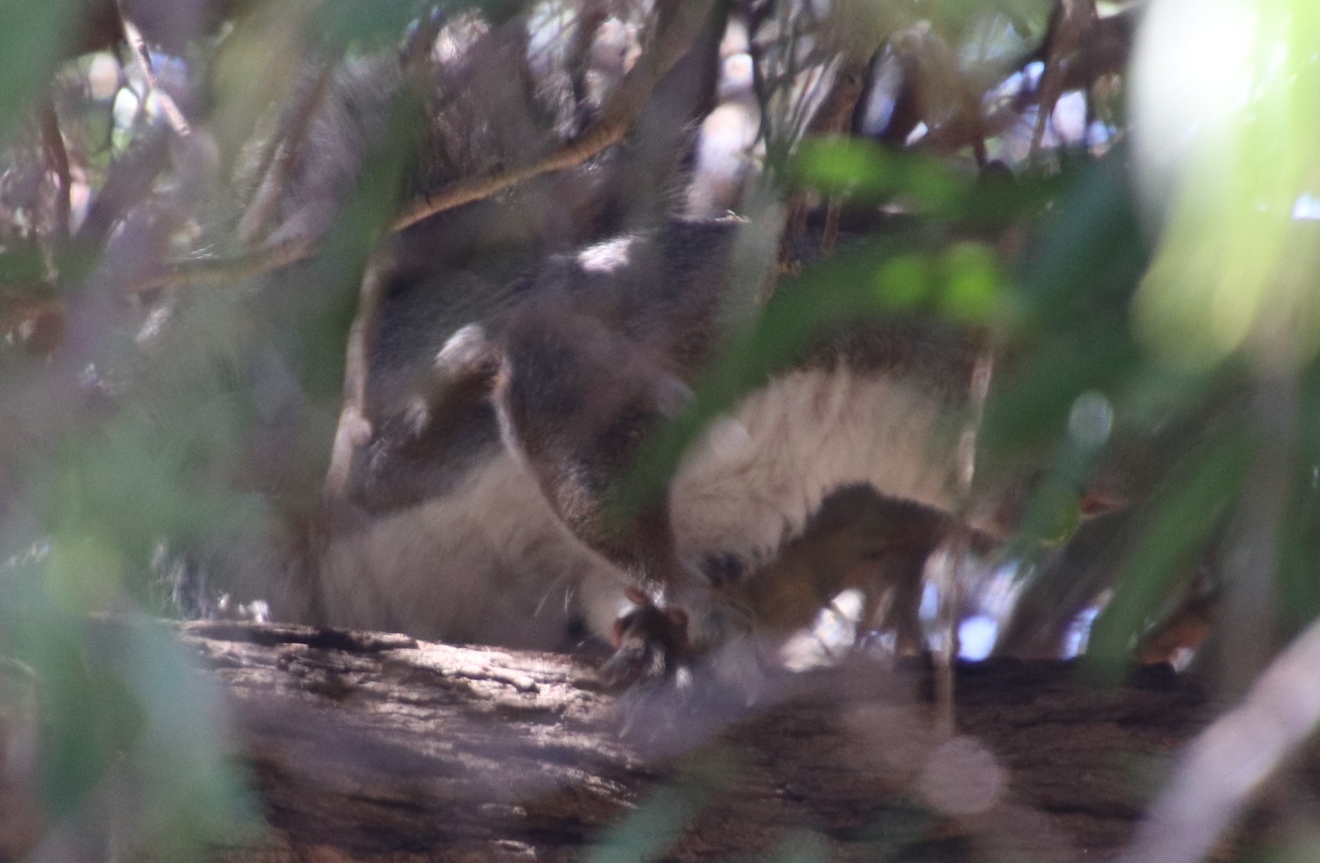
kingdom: Animalia
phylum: Chordata
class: Mammalia
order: Rodentia
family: Sciuridae
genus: Sciurus
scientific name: Sciurus carolinensis
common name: Eastern gray squirrel
